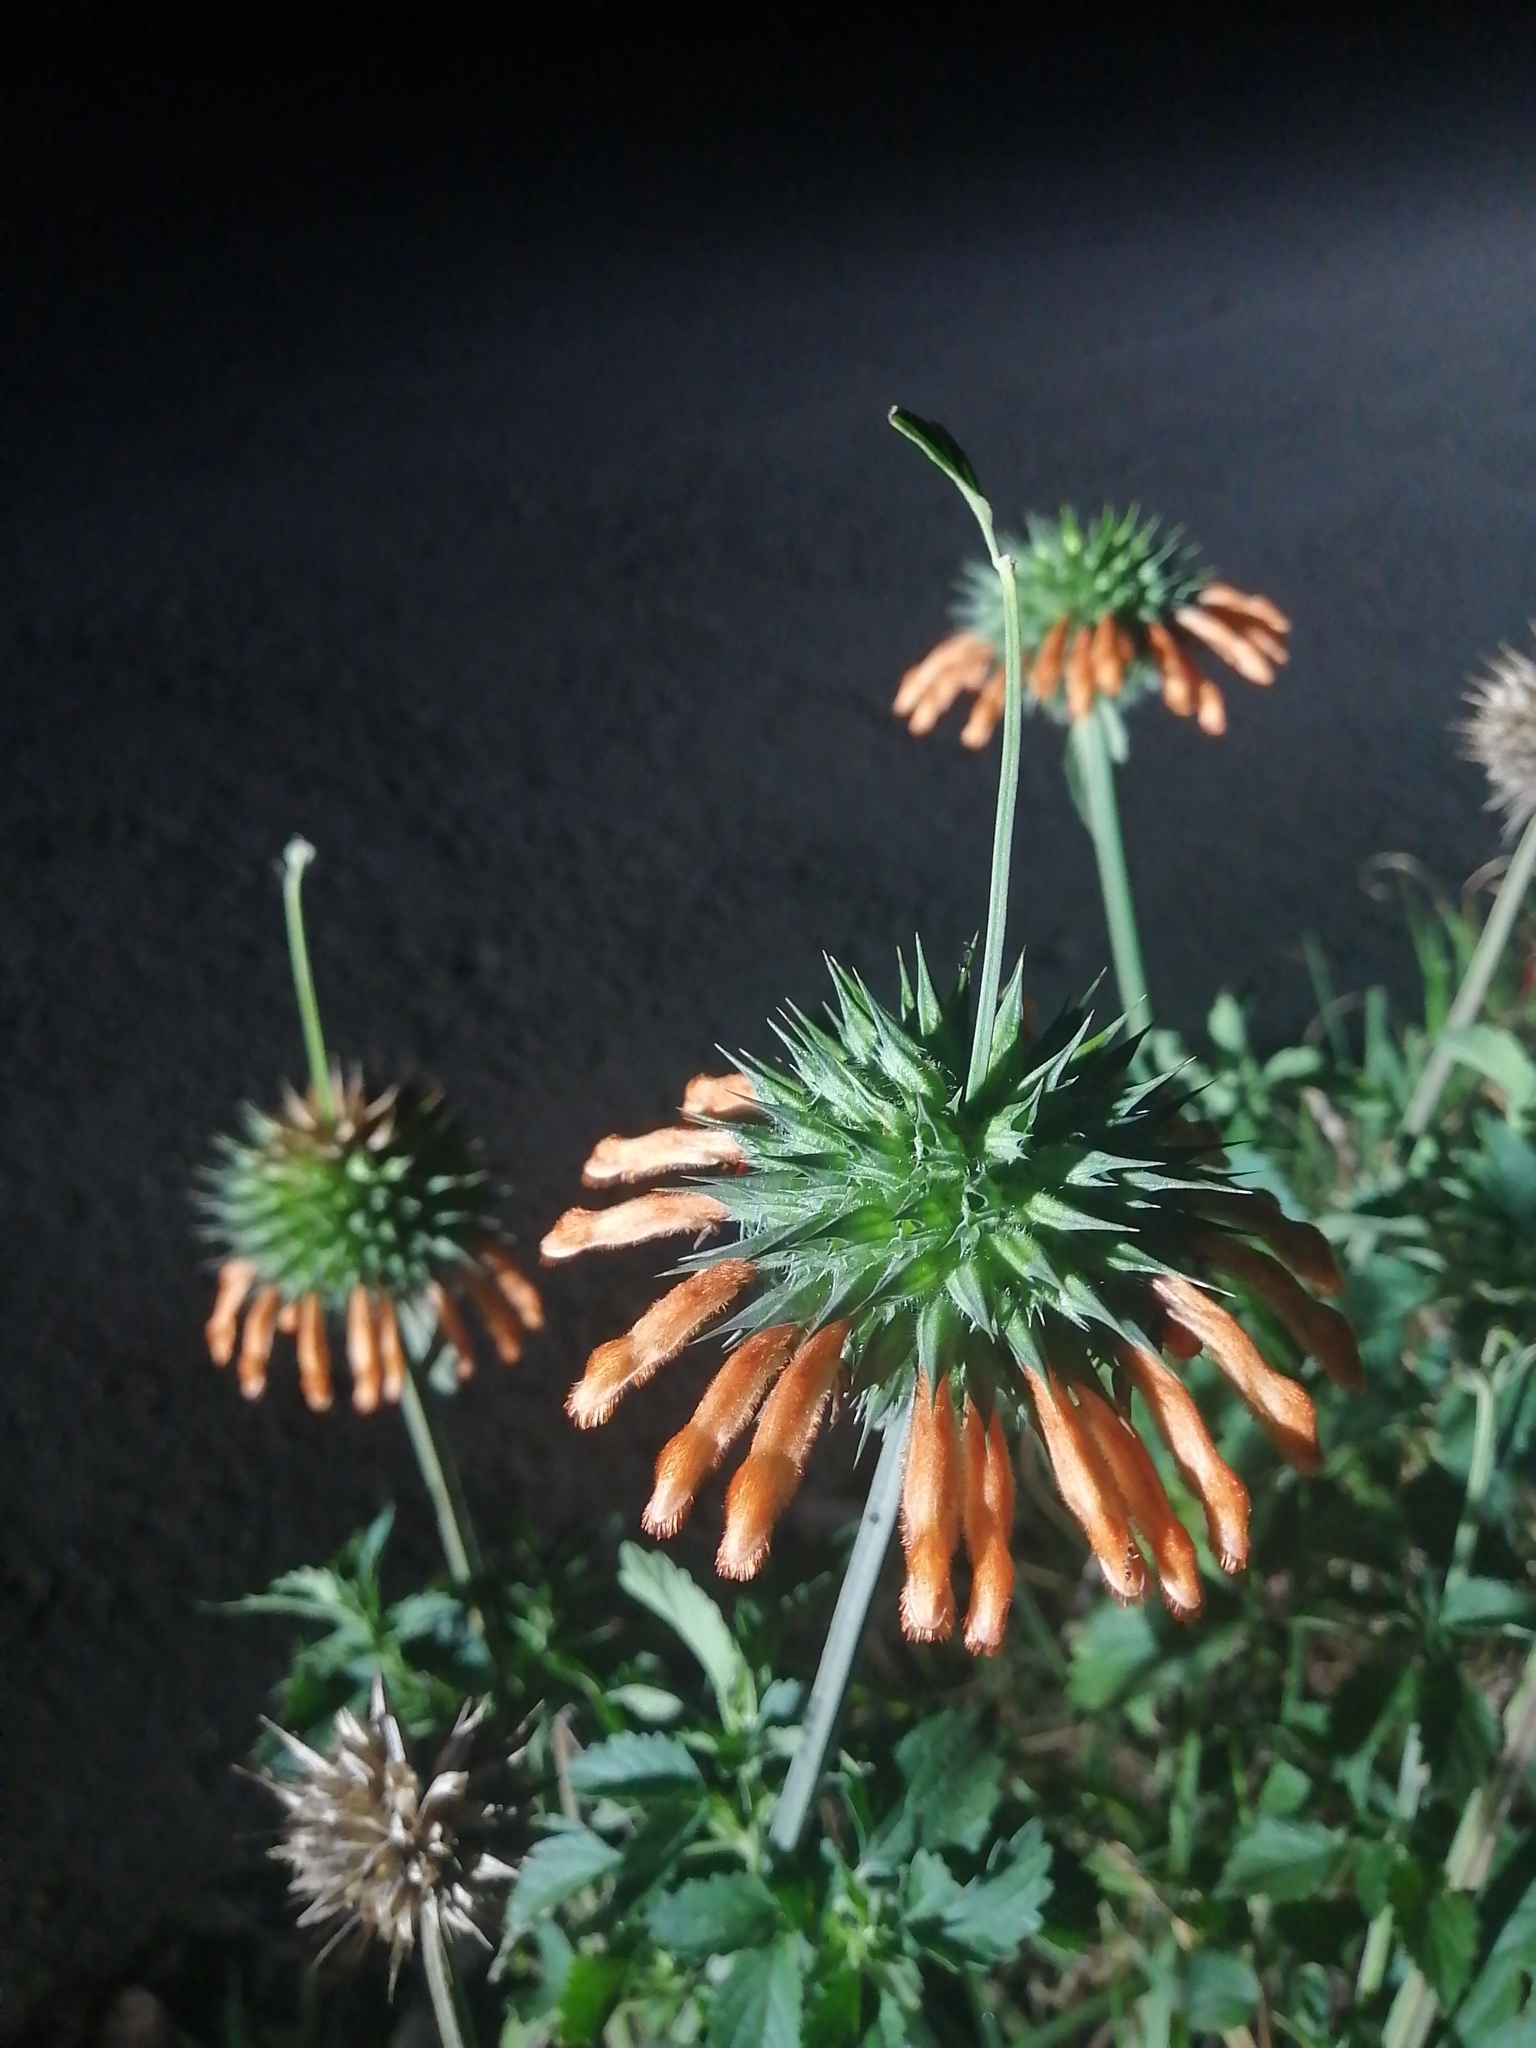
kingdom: Plantae
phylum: Tracheophyta
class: Magnoliopsida
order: Lamiales
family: Lamiaceae
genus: Leonotis
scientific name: Leonotis nepetifolia
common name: Christmas candlestick
